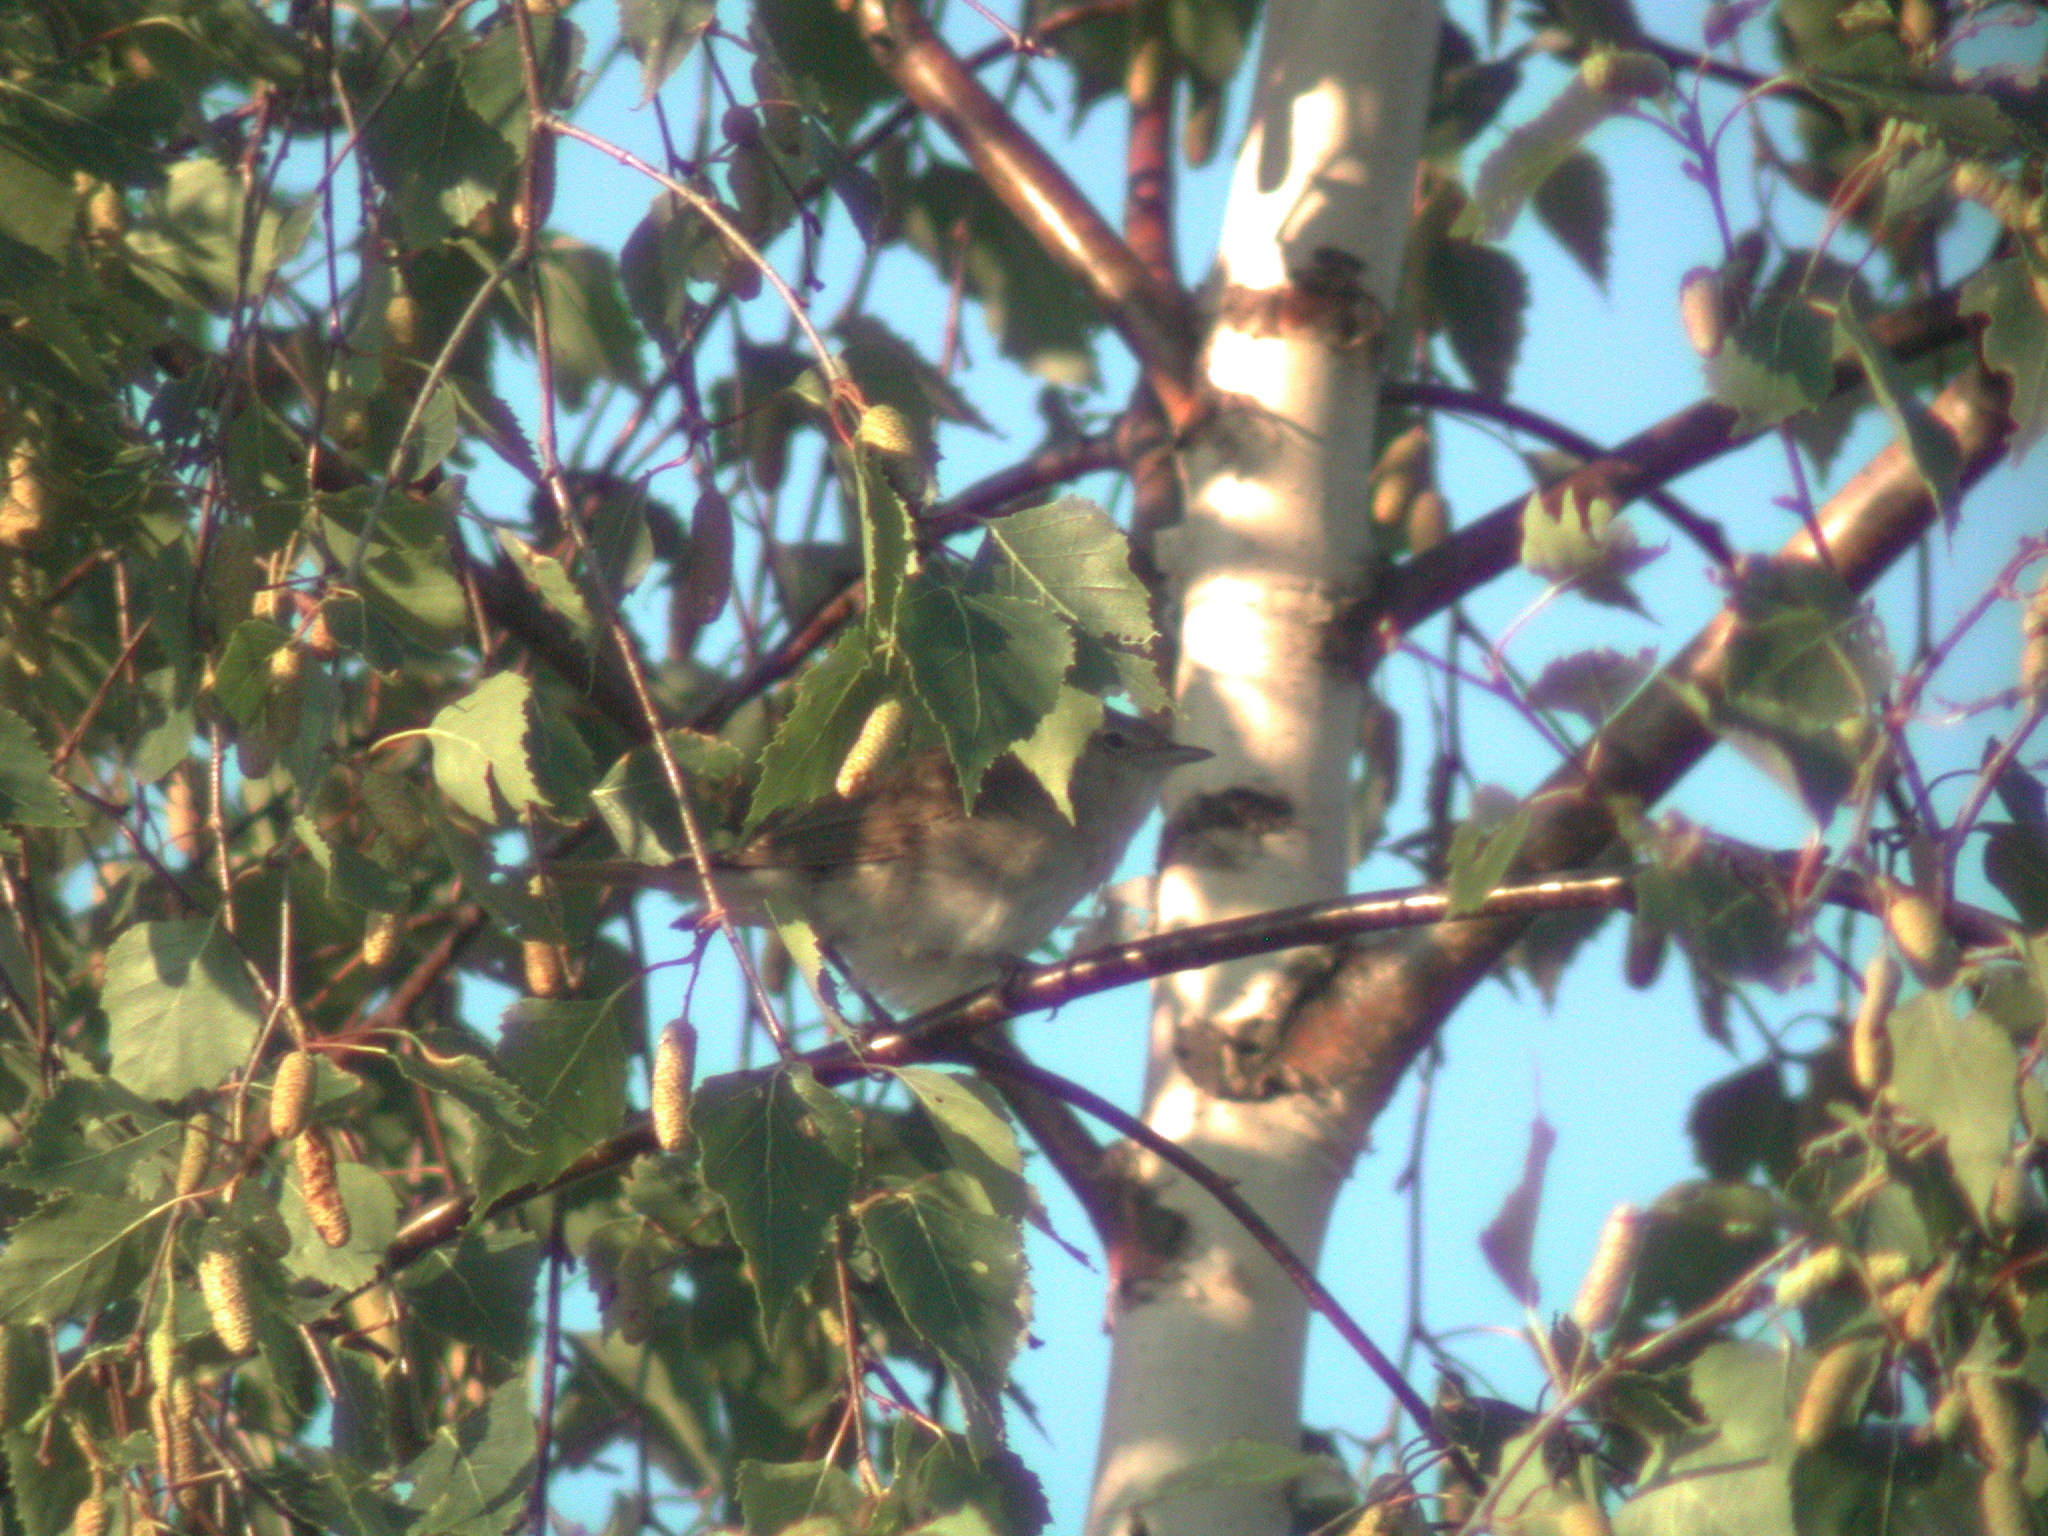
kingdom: Animalia
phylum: Chordata
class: Aves
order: Passeriformes
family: Sylviidae
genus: Sylvia
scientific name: Sylvia borin
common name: Garden warbler
